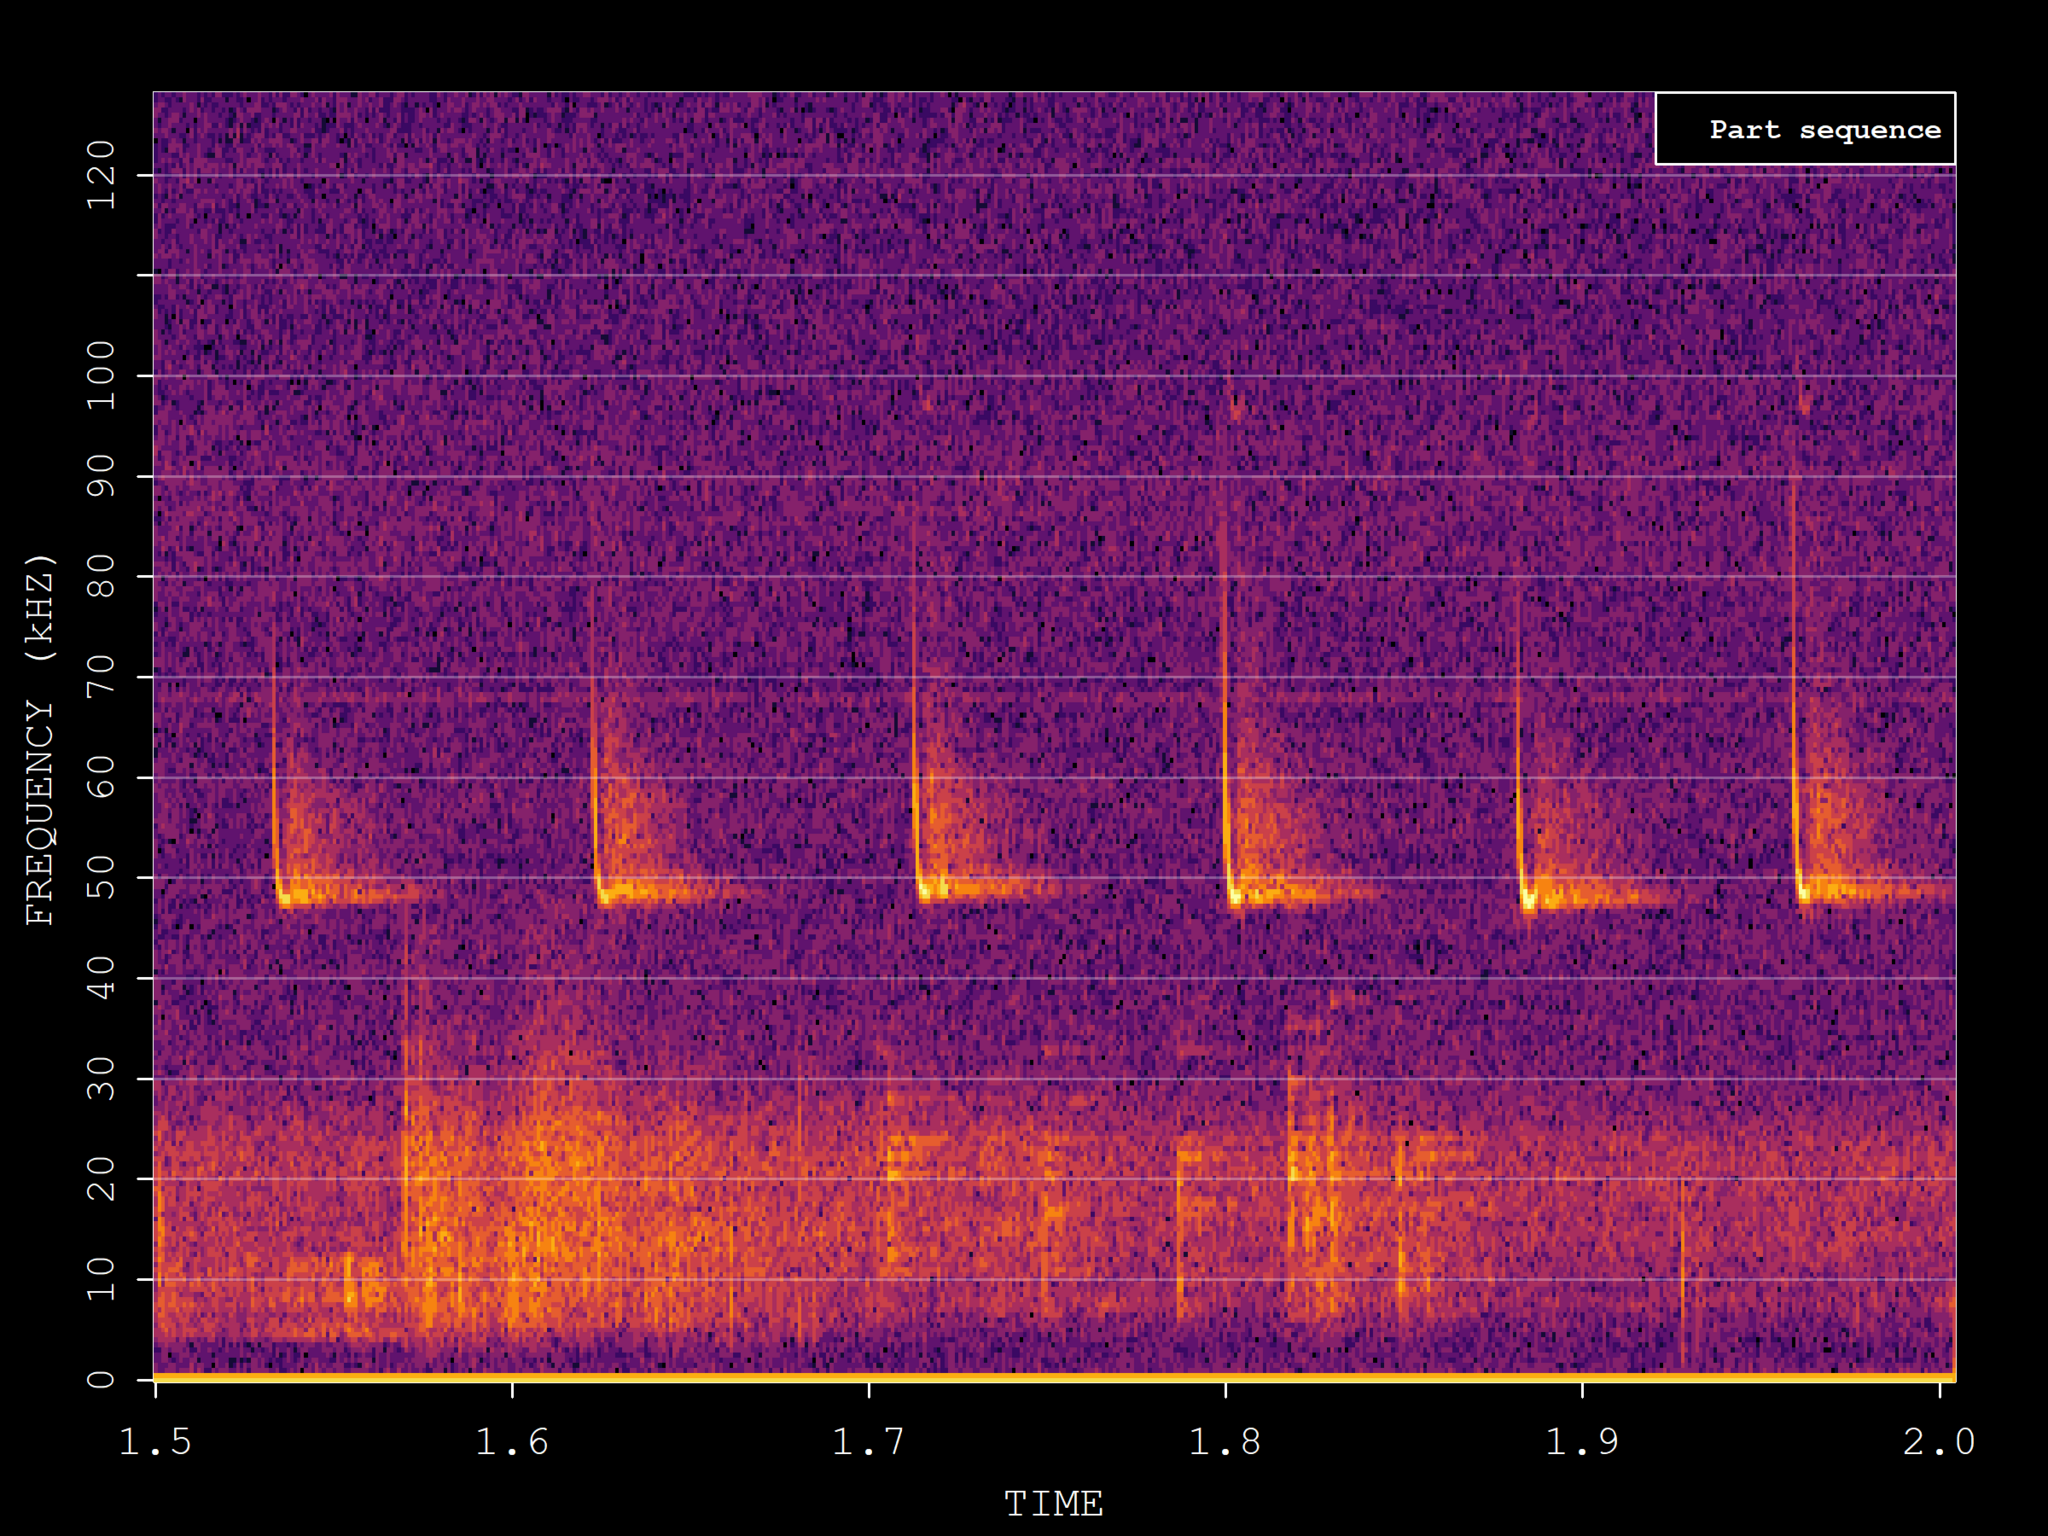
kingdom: Animalia
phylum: Chordata
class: Mammalia
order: Chiroptera
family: Vespertilionidae
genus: Pipistrellus
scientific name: Pipistrellus pipistrellus
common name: Common pipistrelle
